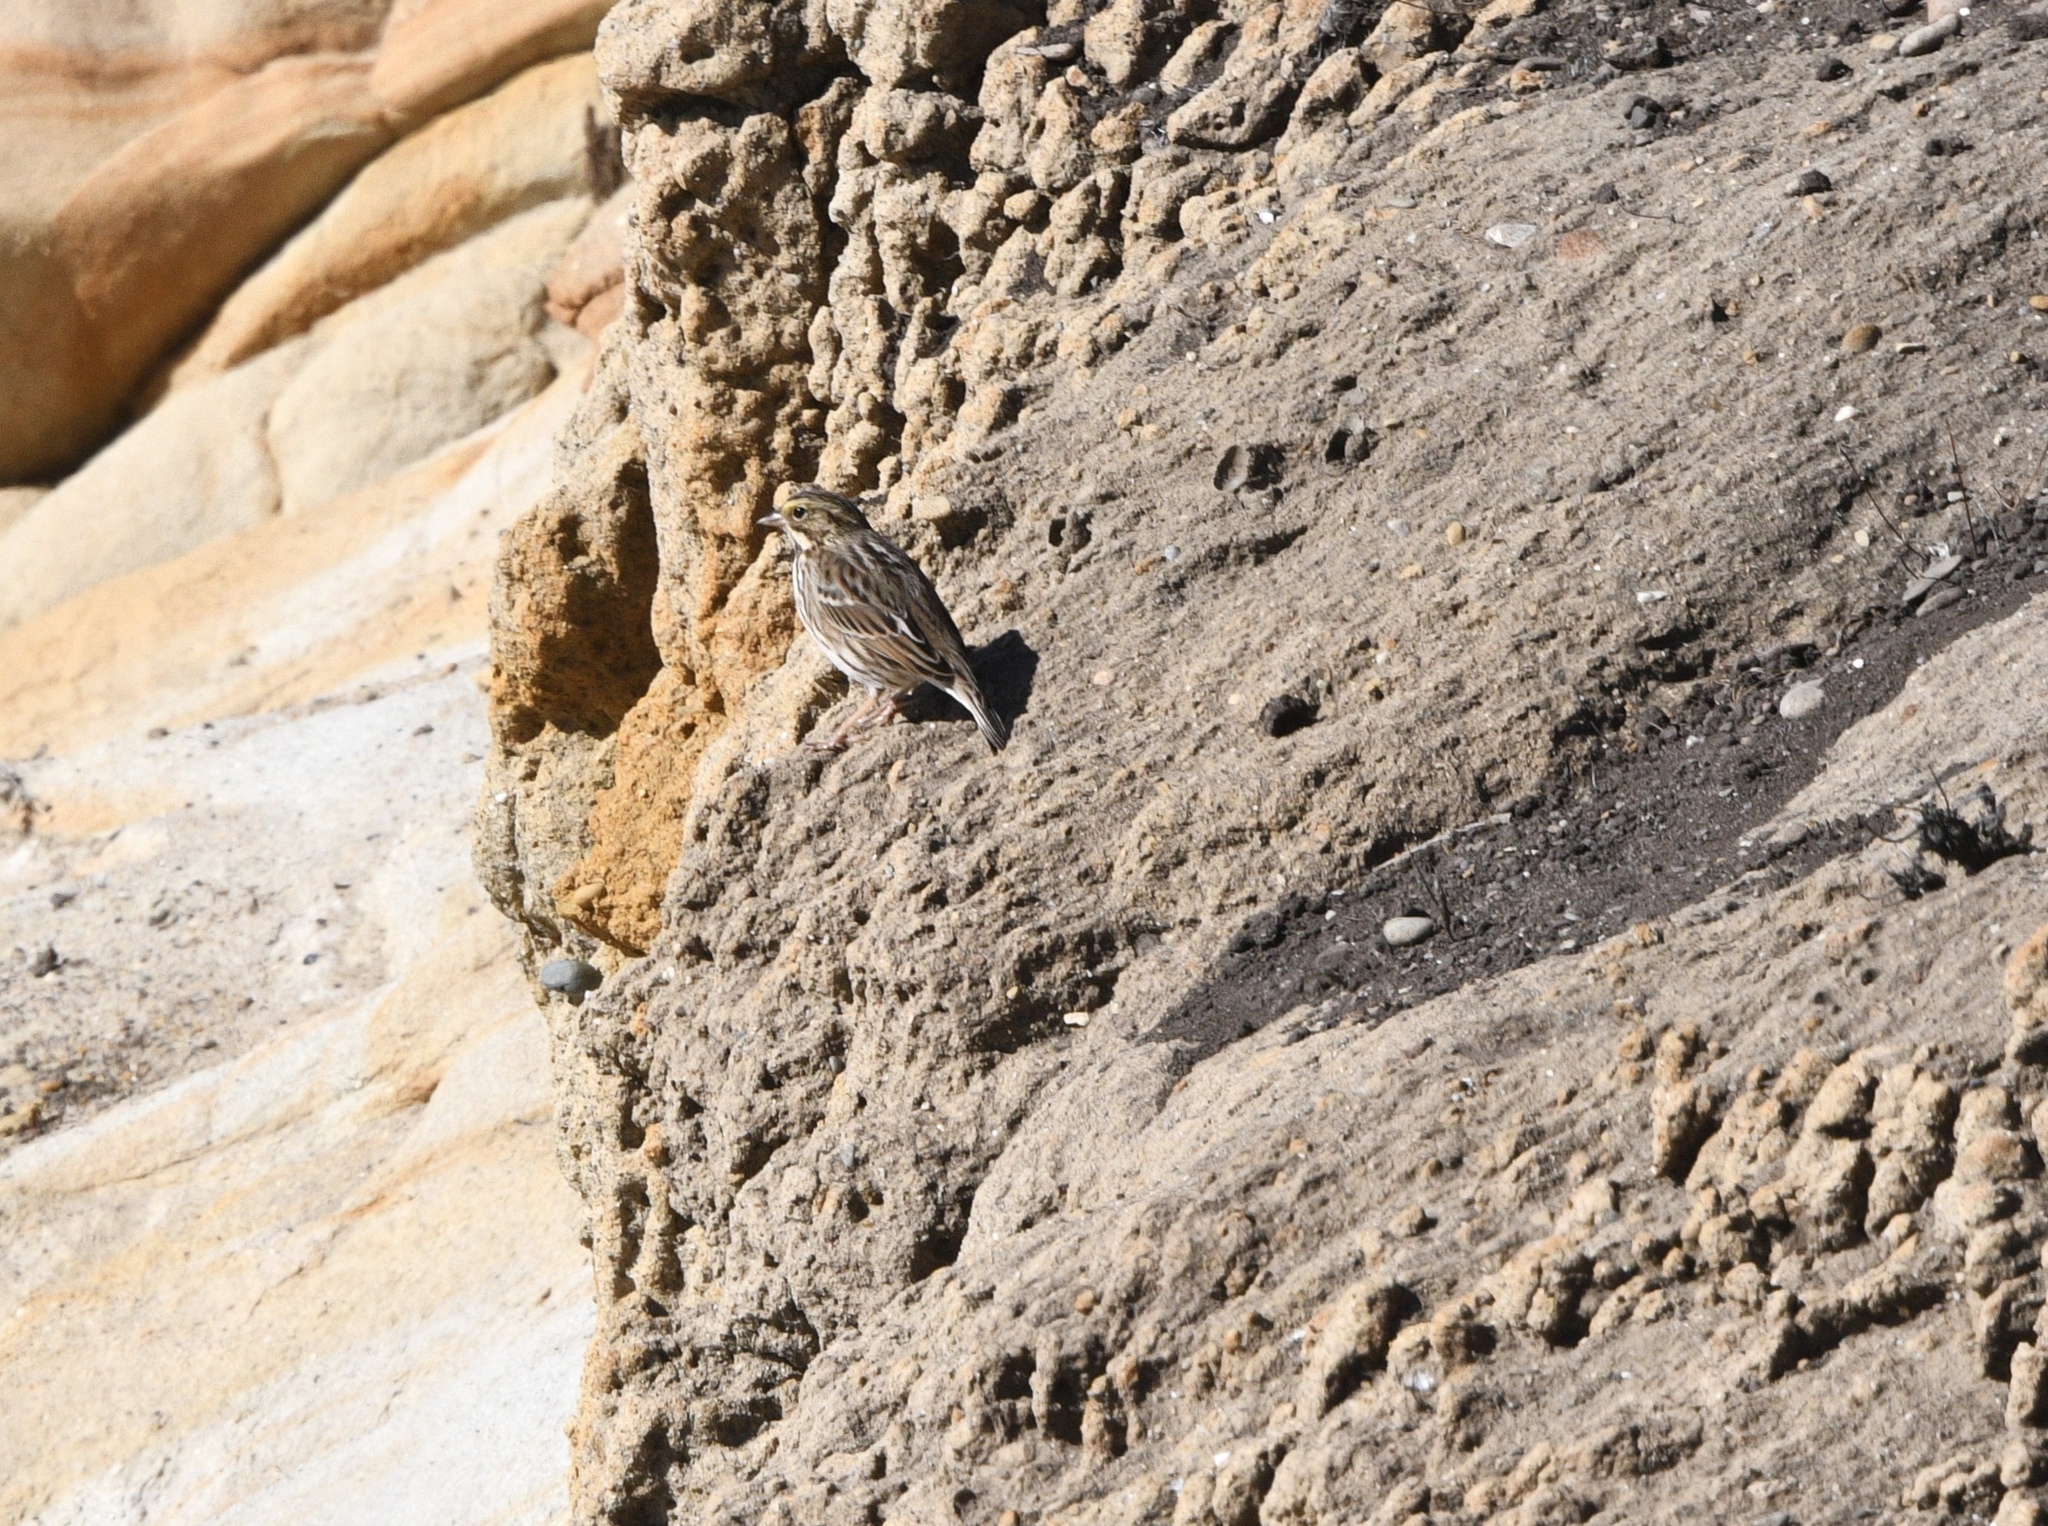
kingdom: Animalia
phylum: Chordata
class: Aves
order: Passeriformes
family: Passerellidae
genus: Passerculus
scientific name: Passerculus sandwichensis
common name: Savannah sparrow
